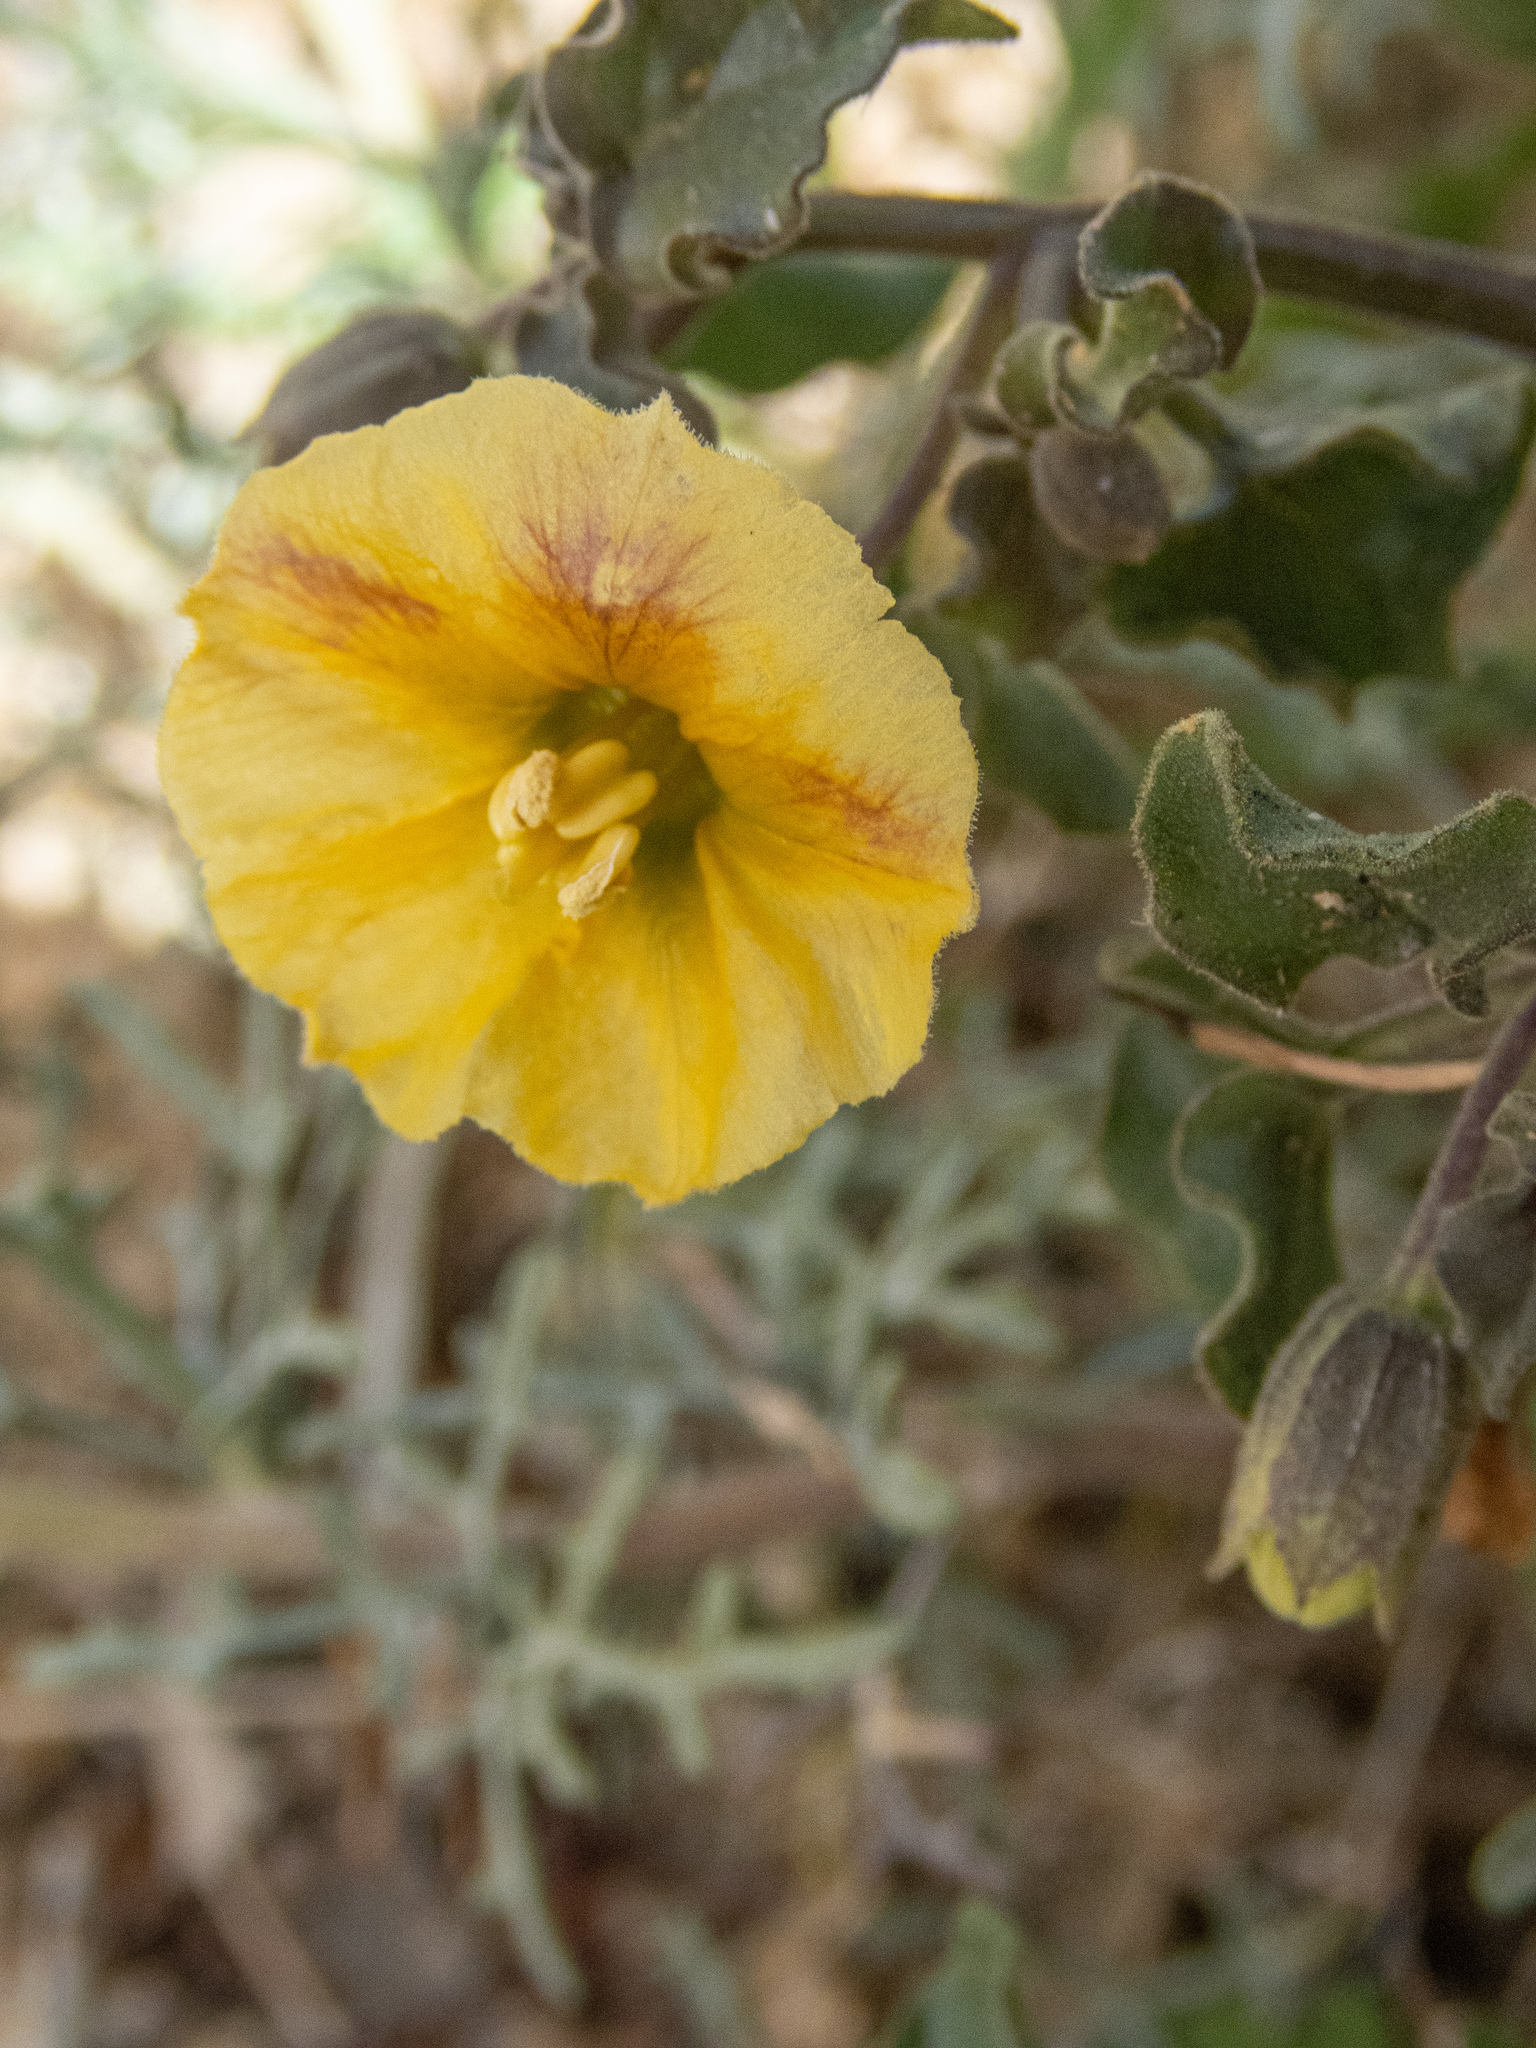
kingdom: Plantae
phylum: Tracheophyta
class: Magnoliopsida
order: Solanales
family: Solanaceae
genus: Physalis
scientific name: Physalis crassifolia
